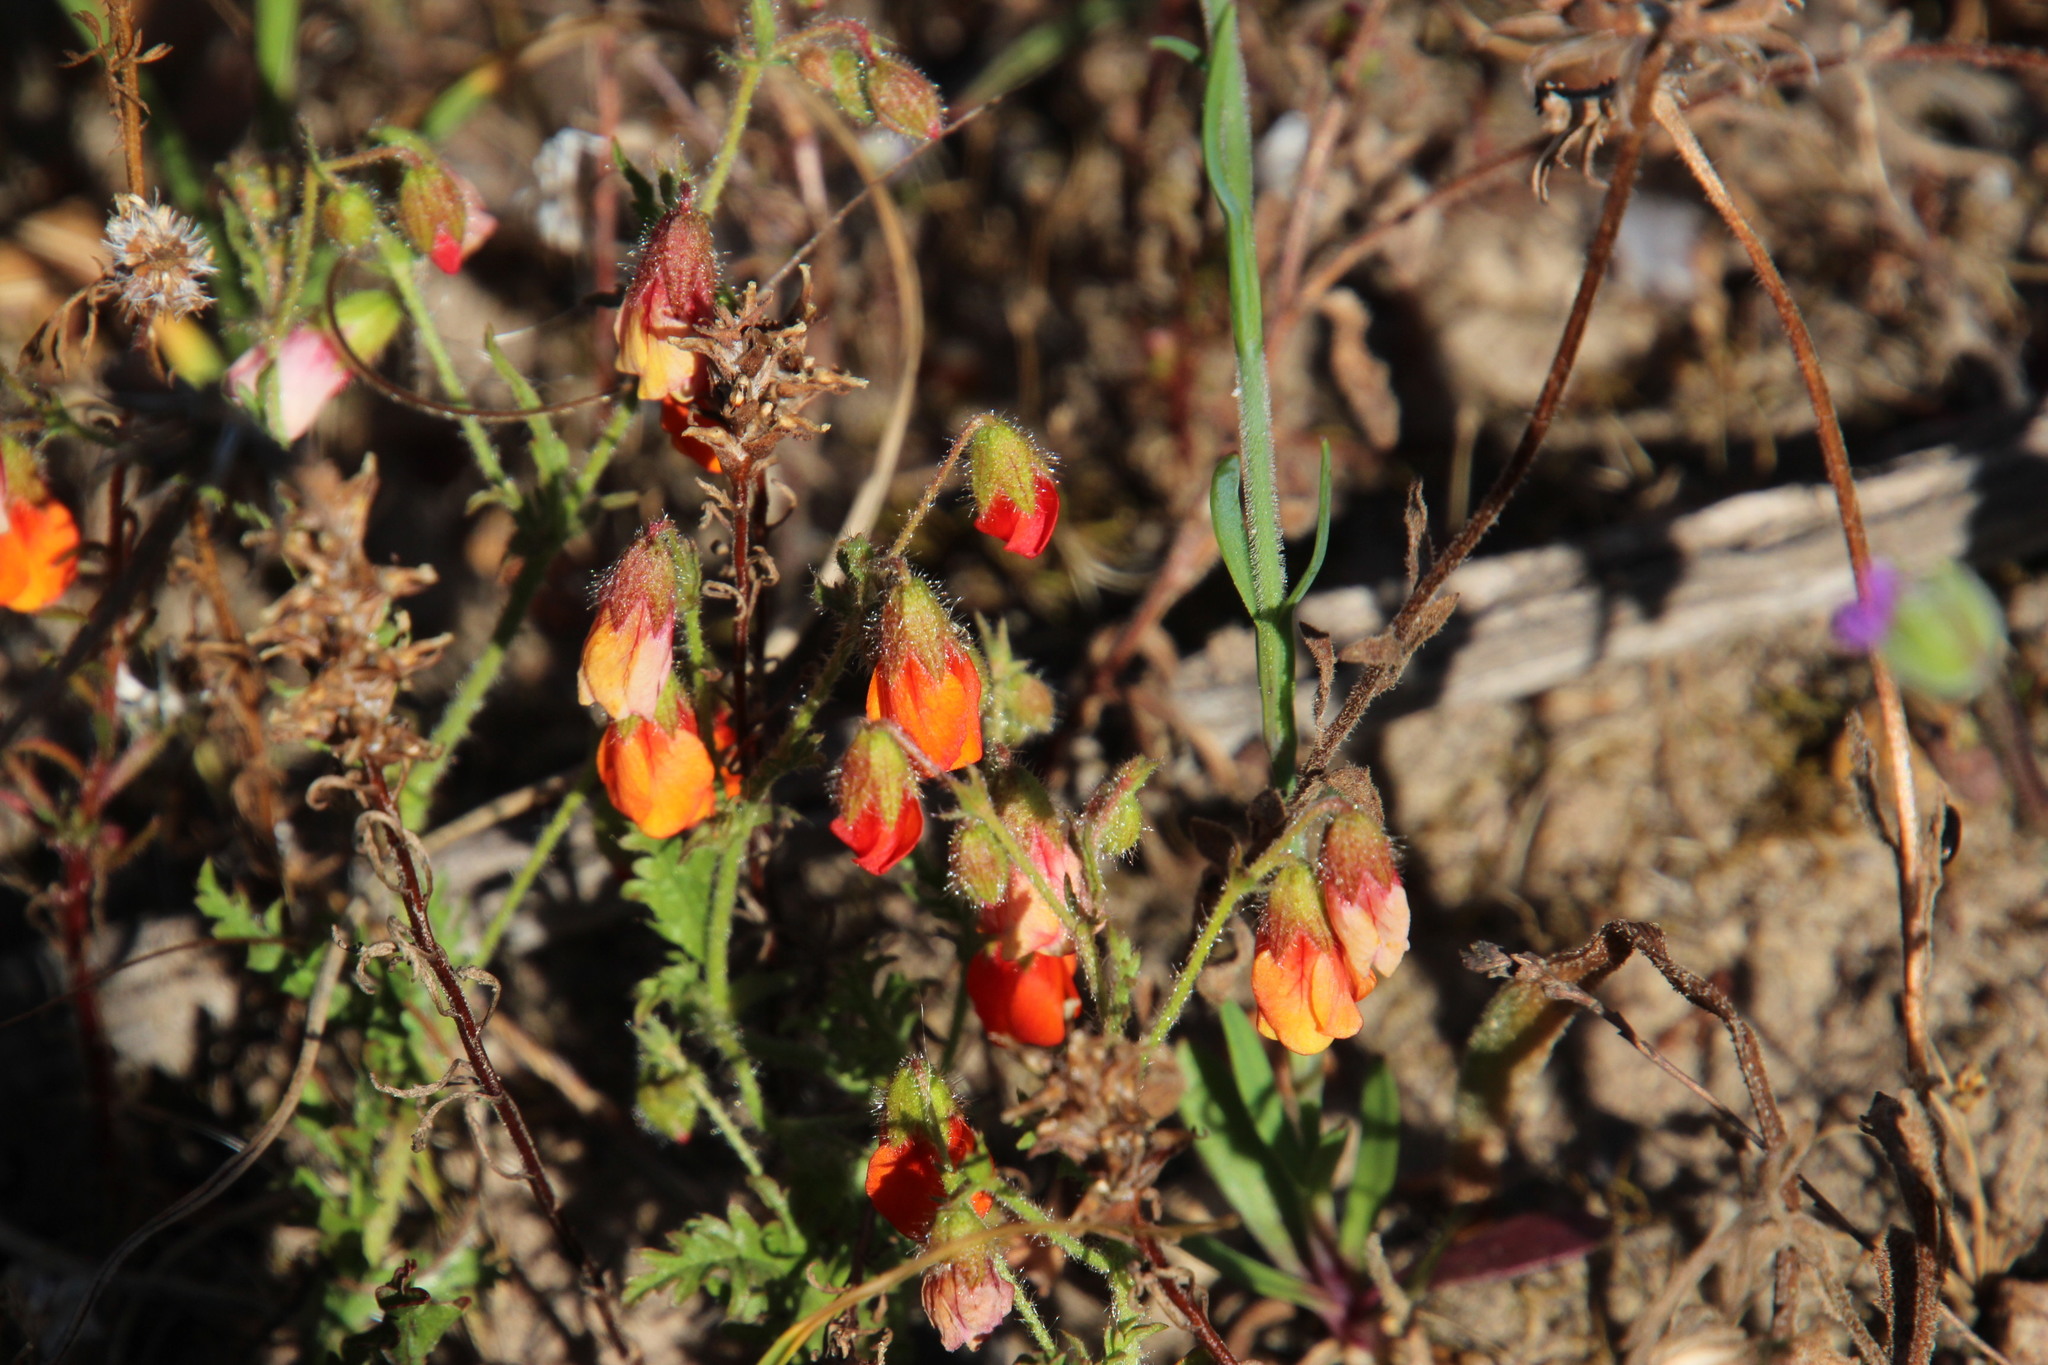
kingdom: Plantae
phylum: Tracheophyta
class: Magnoliopsida
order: Malvales
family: Malvaceae
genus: Hermannia
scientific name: Hermannia diffusa
